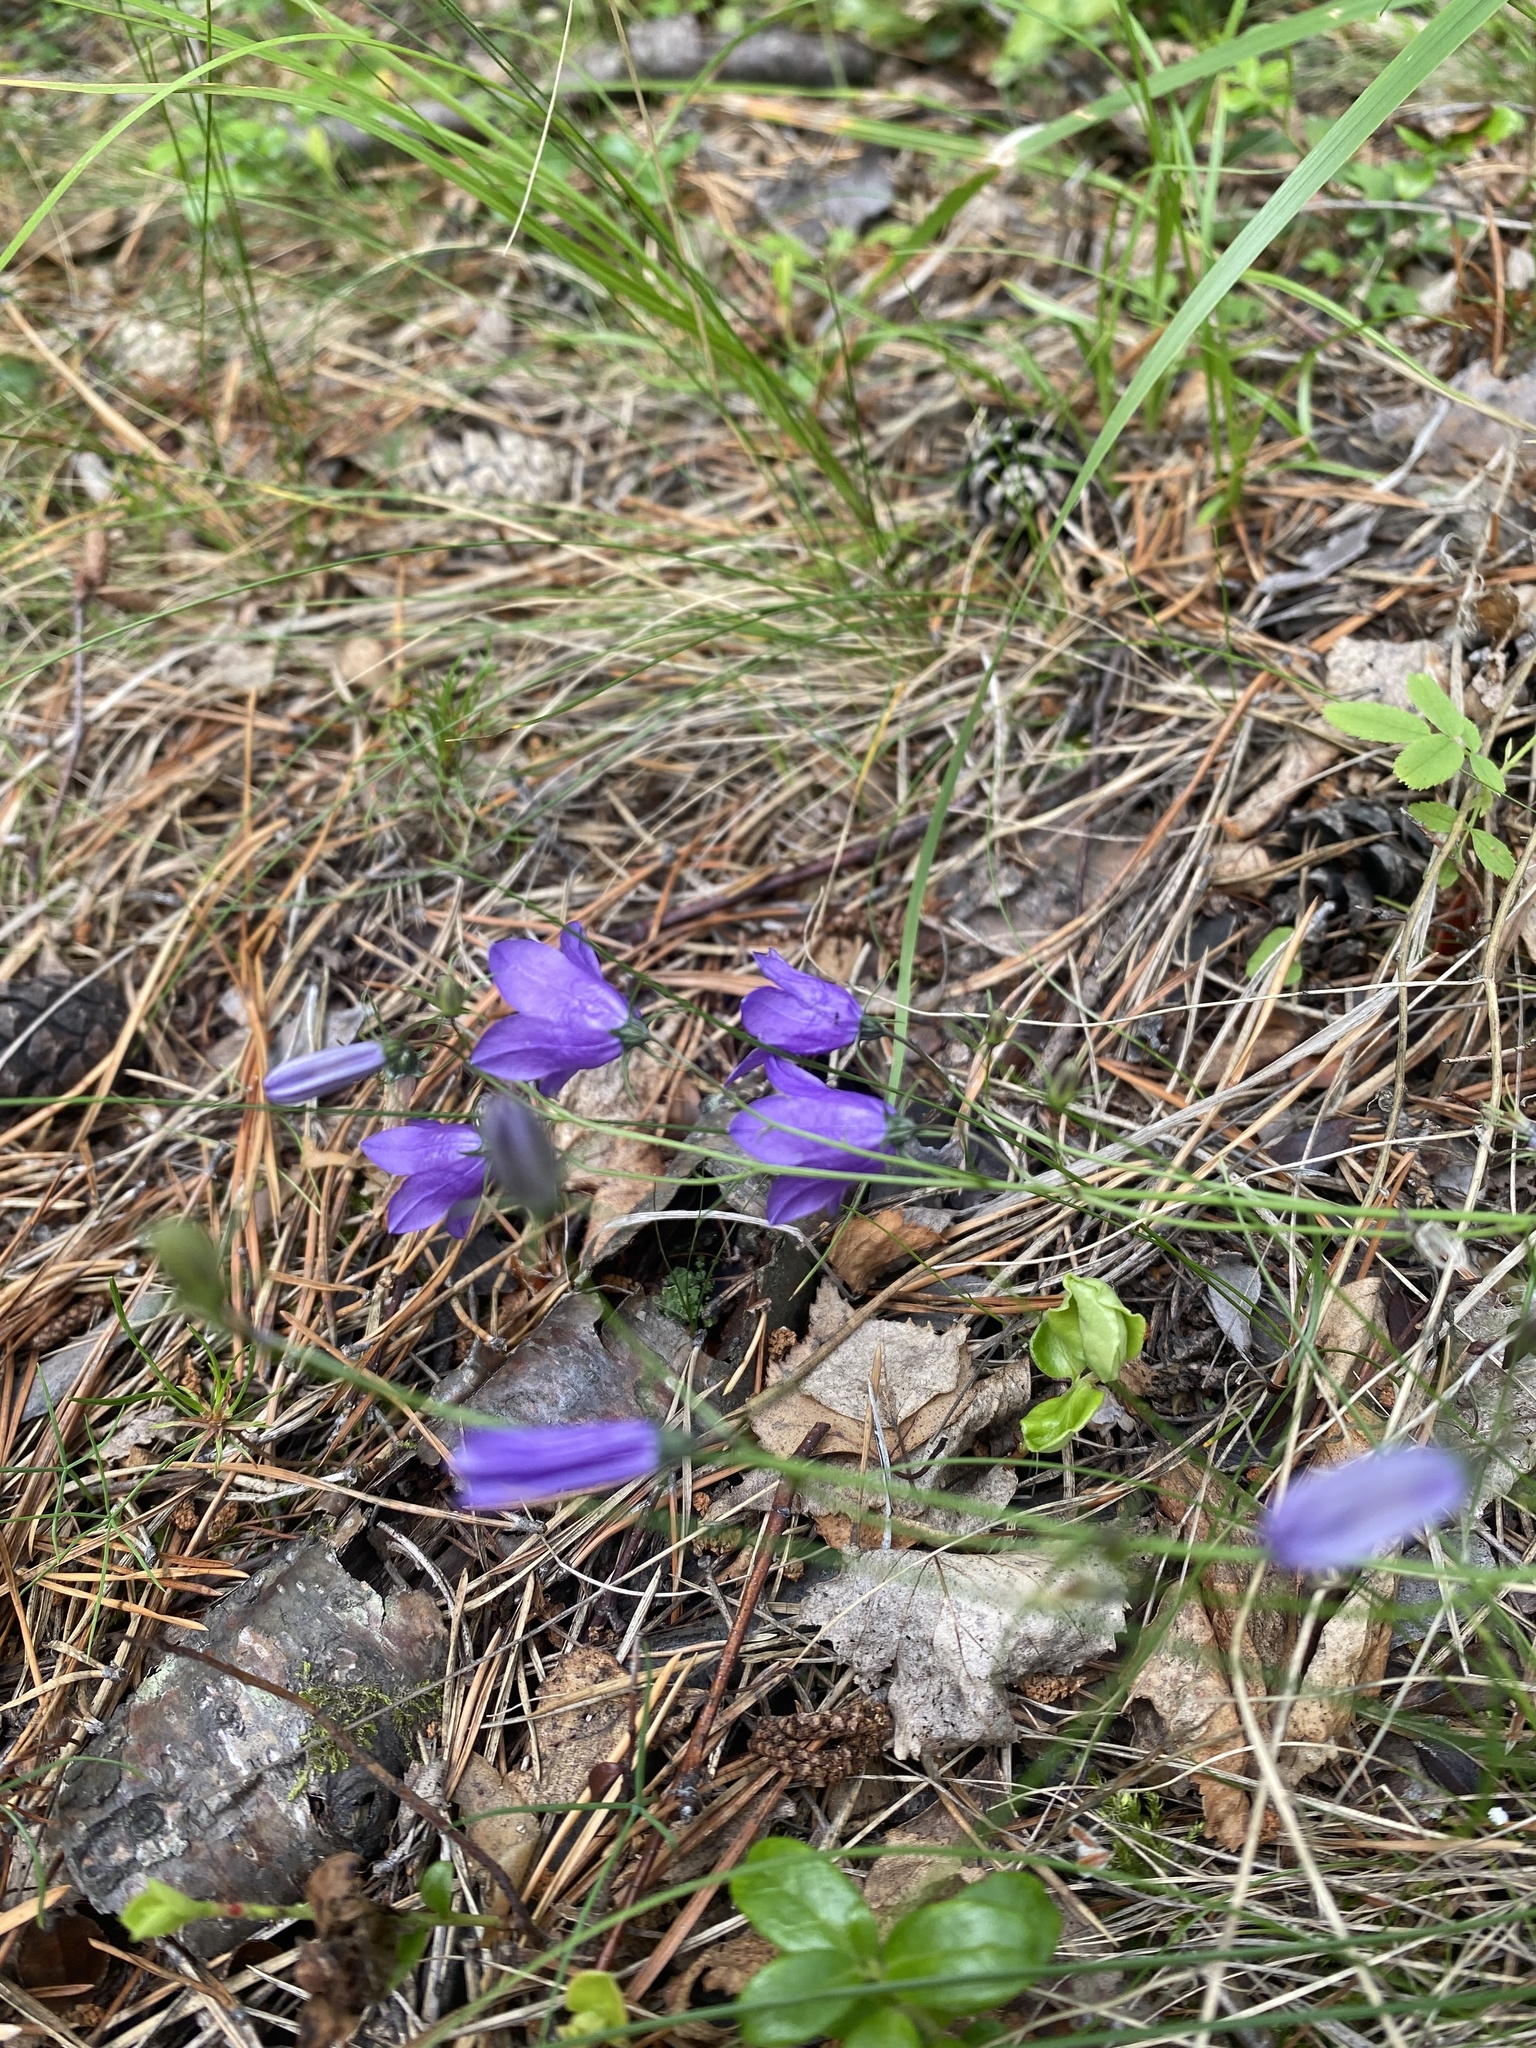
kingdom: Plantae
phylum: Tracheophyta
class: Magnoliopsida
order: Asterales
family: Campanulaceae
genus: Campanula
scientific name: Campanula rotundifolia
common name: Harebell
